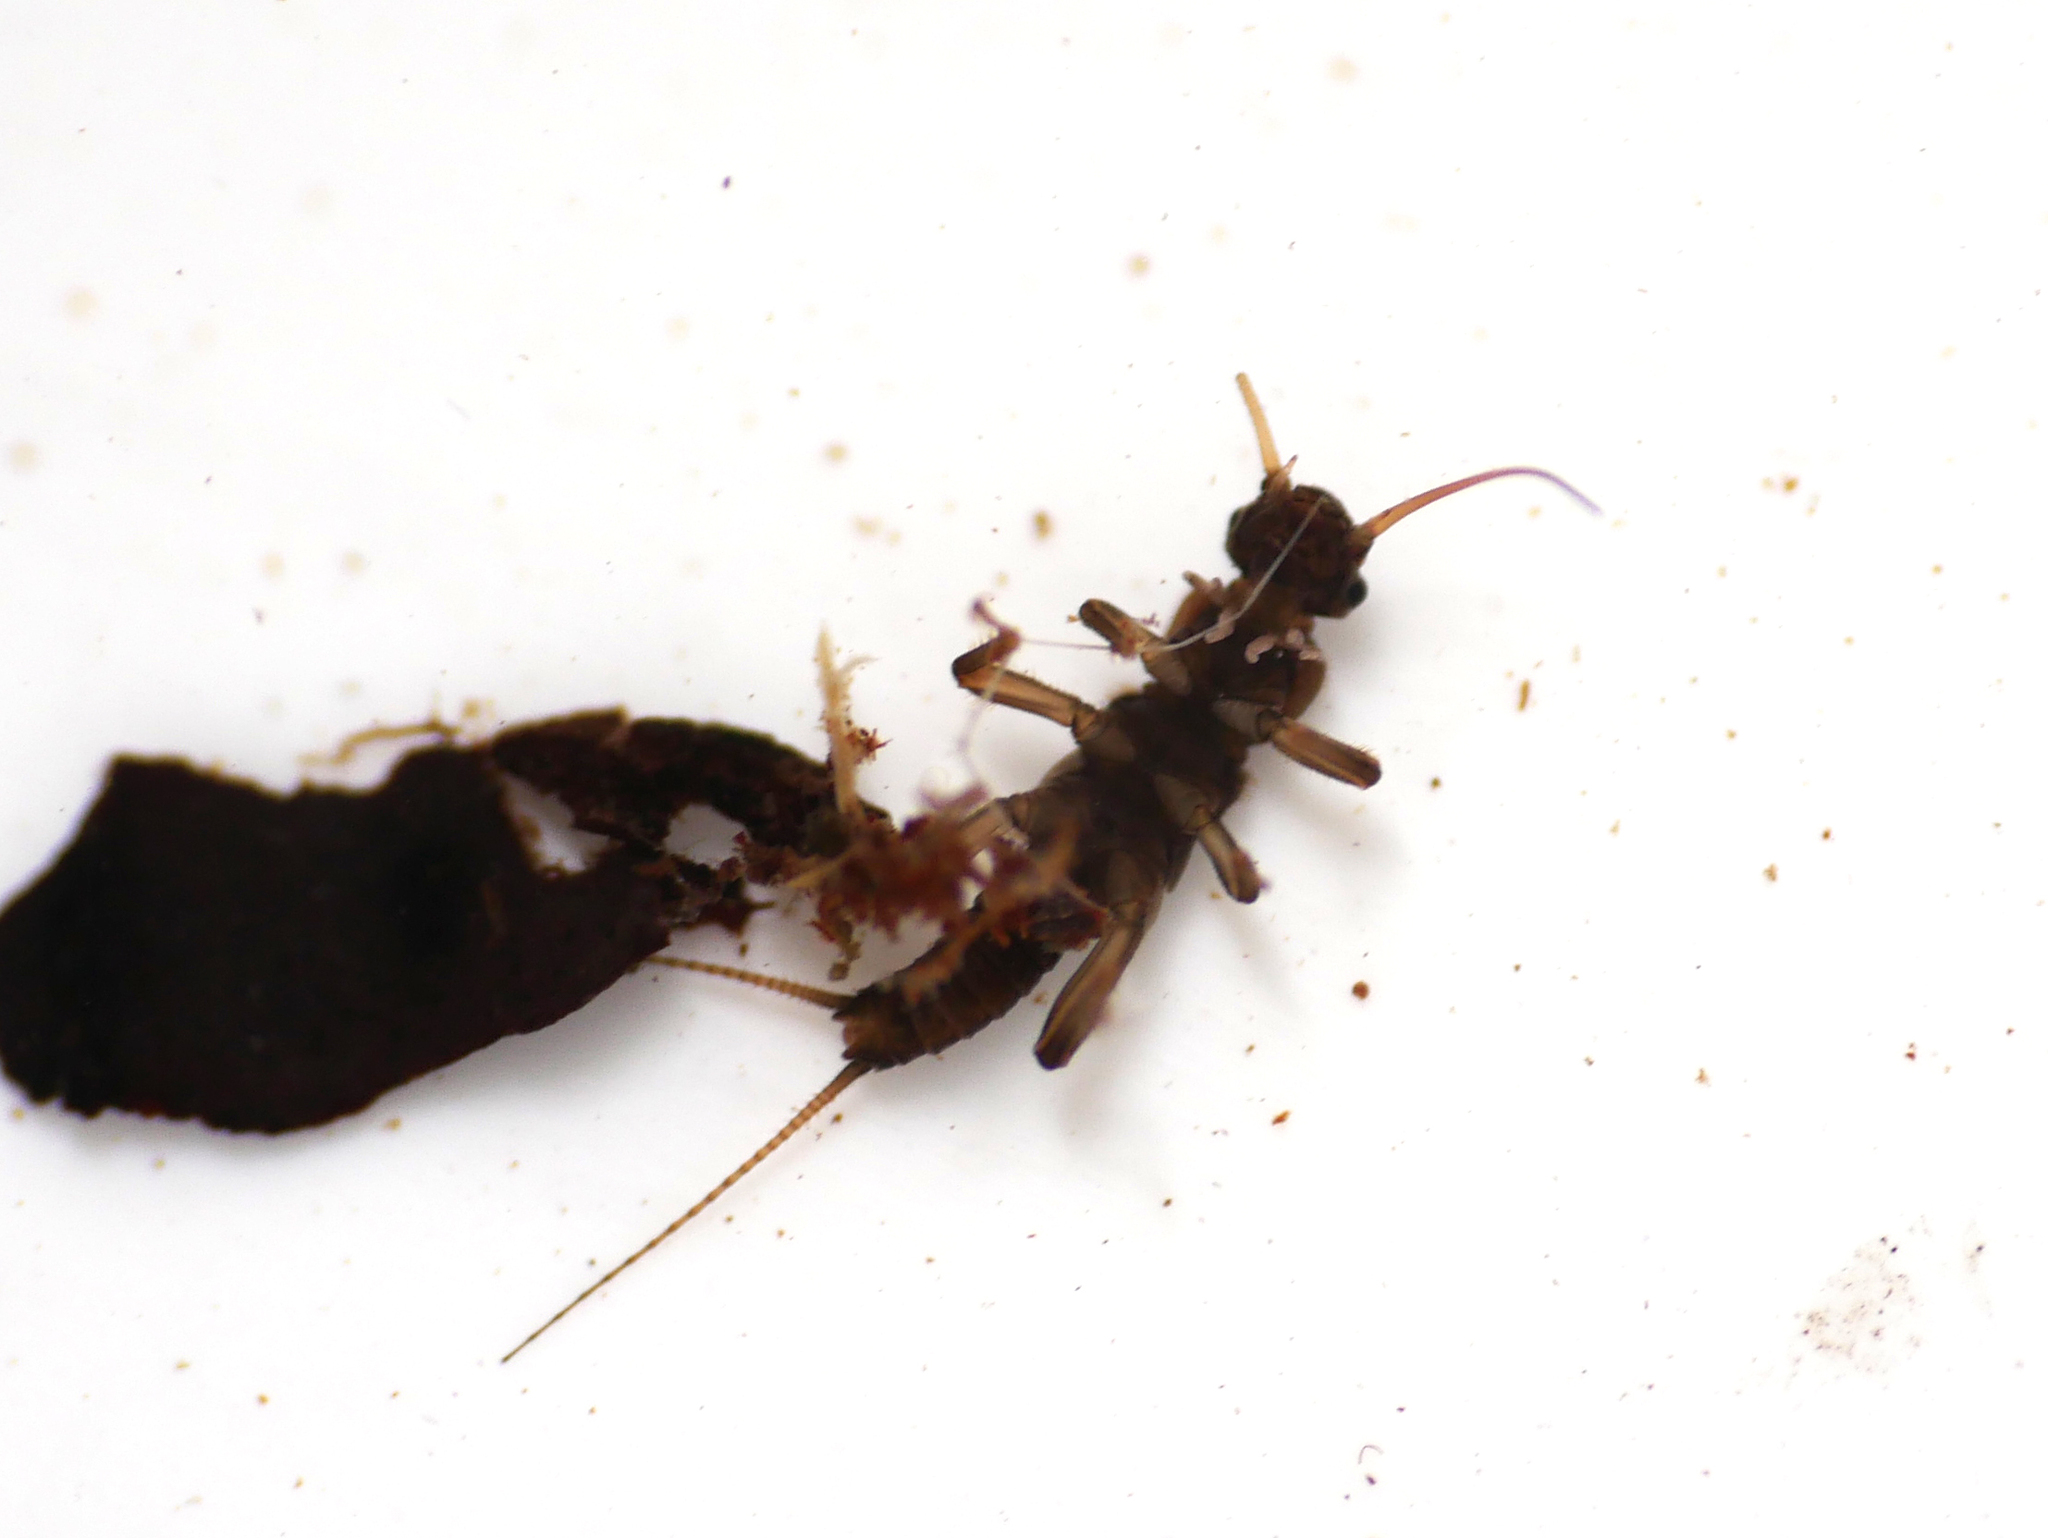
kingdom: Animalia
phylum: Arthropoda
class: Insecta
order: Plecoptera
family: Nemouridae
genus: Protonemura
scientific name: Protonemura hrabei
